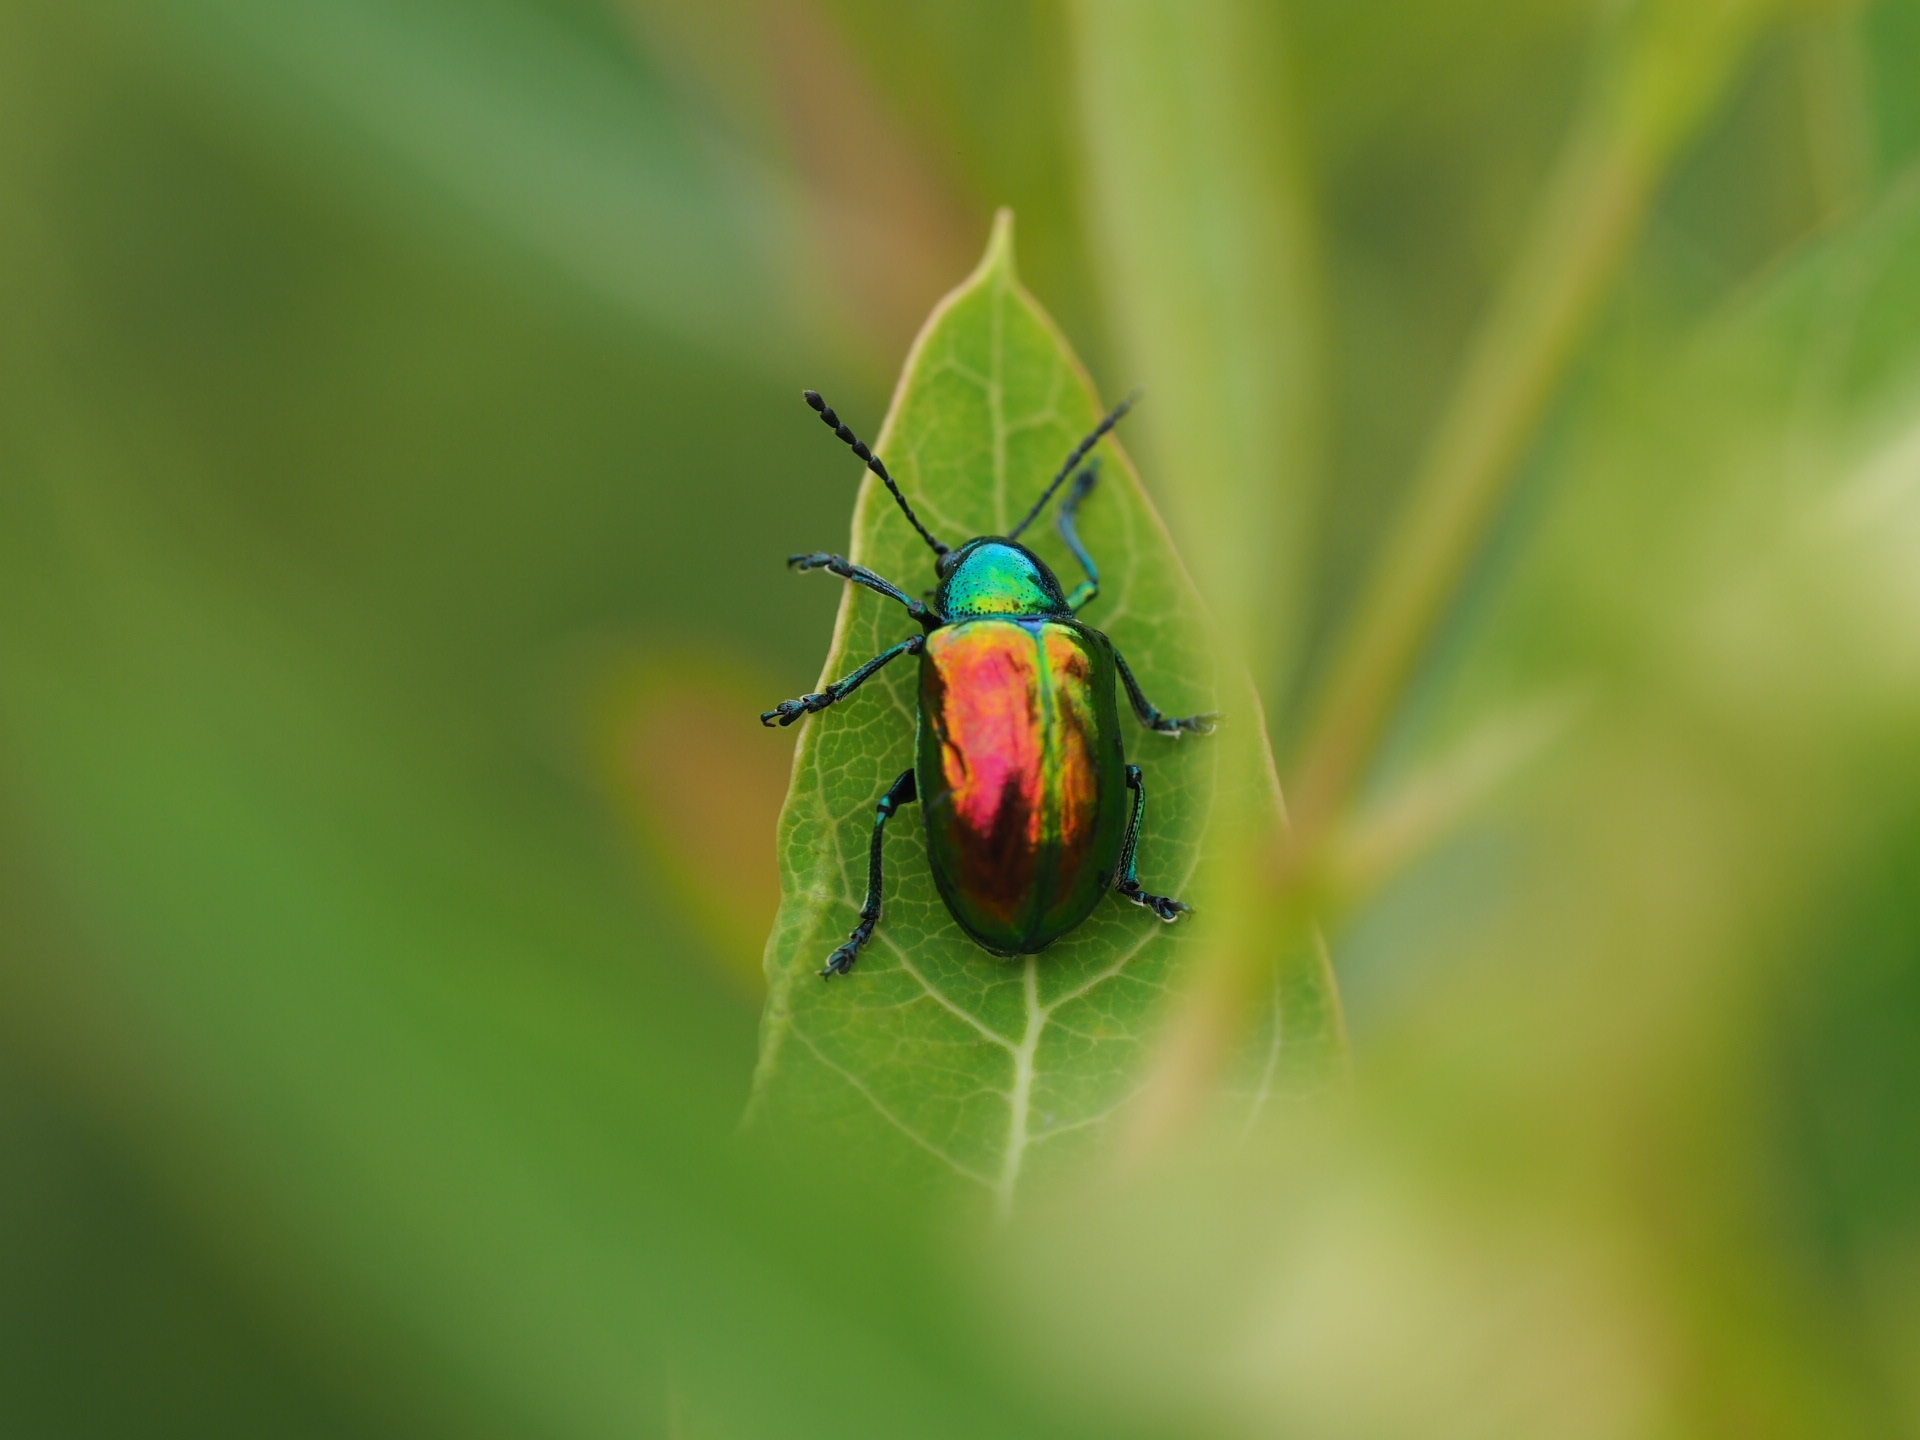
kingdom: Animalia
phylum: Arthropoda
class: Insecta
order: Coleoptera
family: Chrysomelidae
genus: Chrysochus
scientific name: Chrysochus auratus
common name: Dogbane leaf beetle
